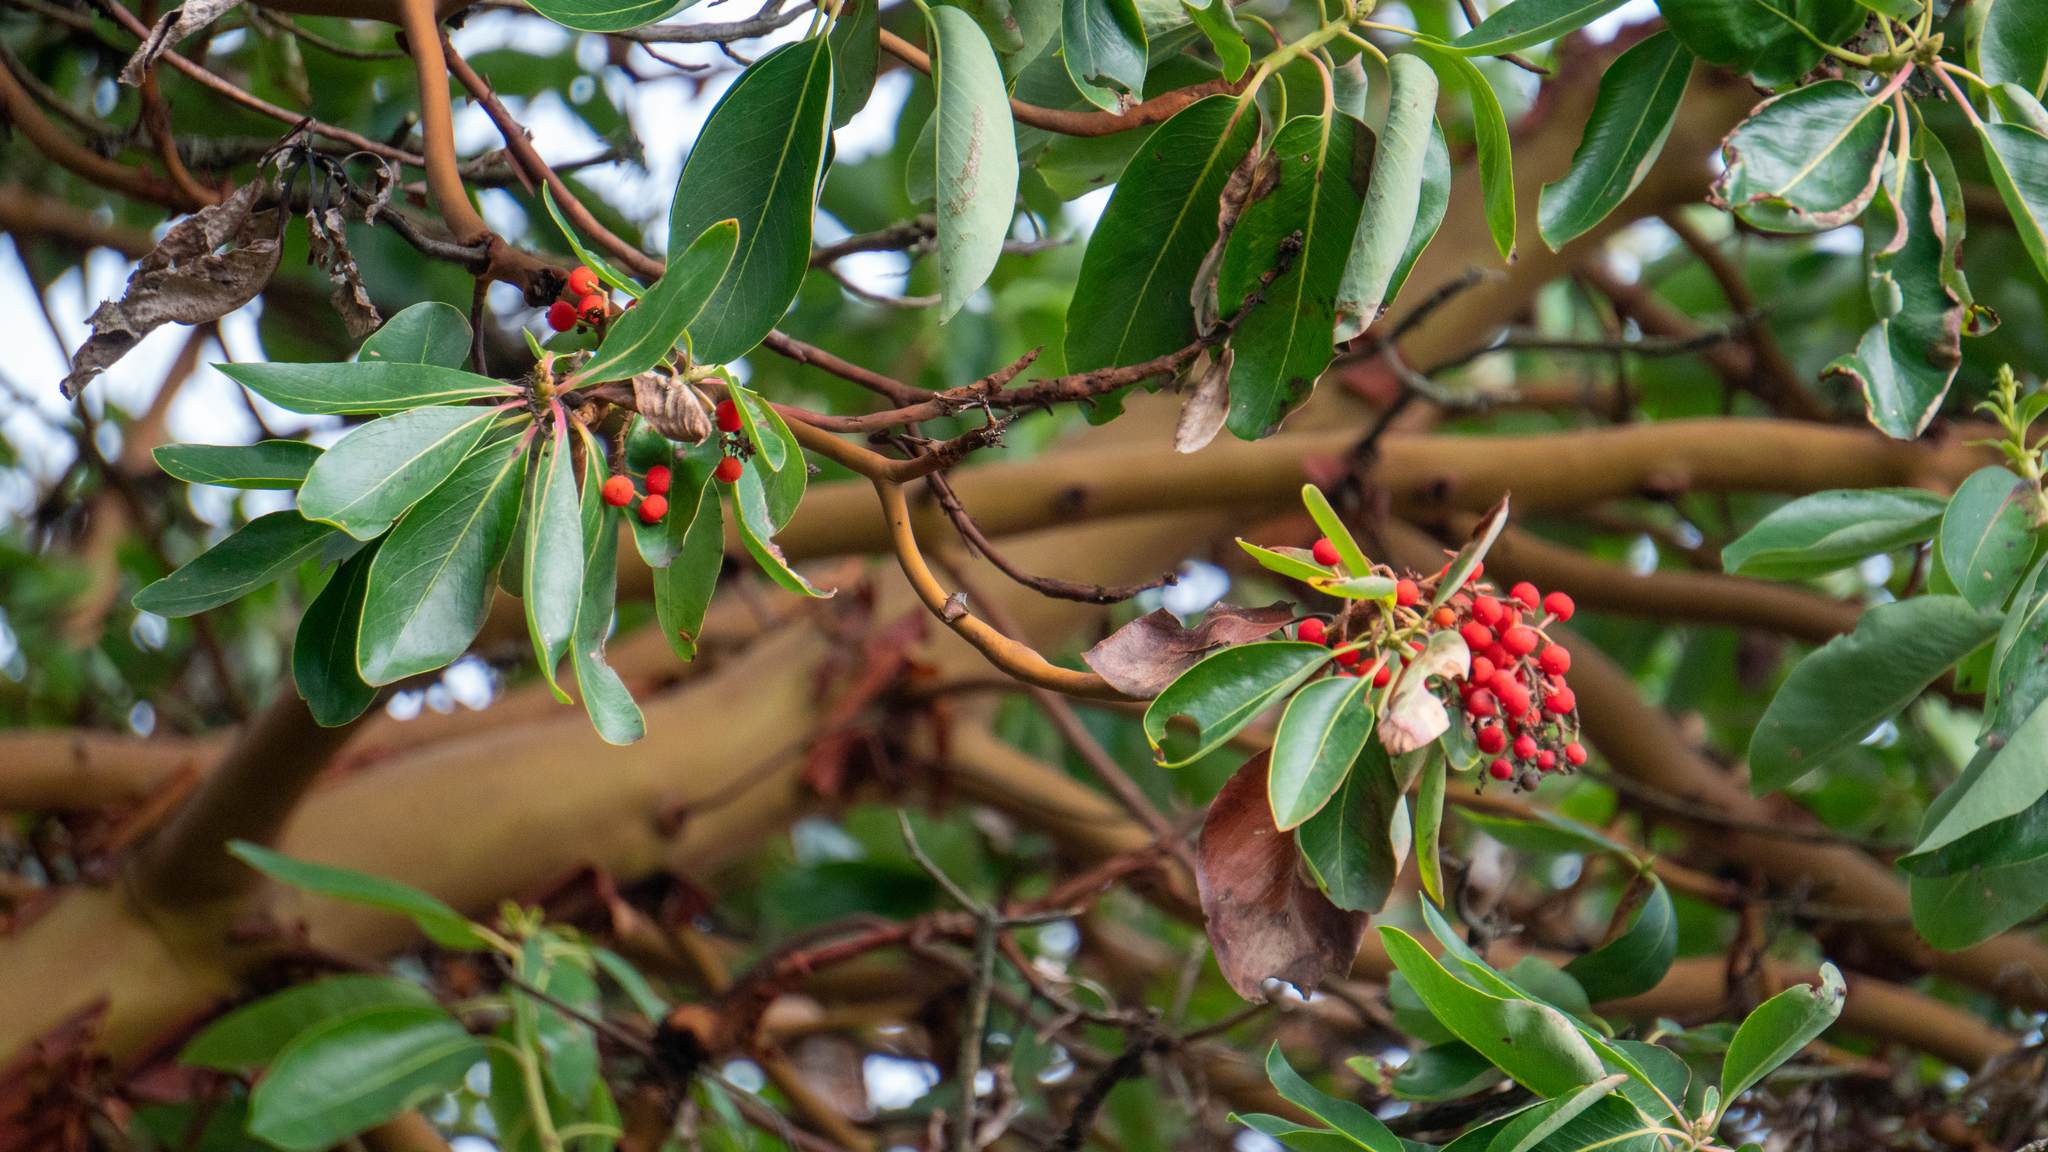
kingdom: Plantae
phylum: Tracheophyta
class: Magnoliopsida
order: Ericales
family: Ericaceae
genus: Arbutus
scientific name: Arbutus menziesii
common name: Pacific madrone
